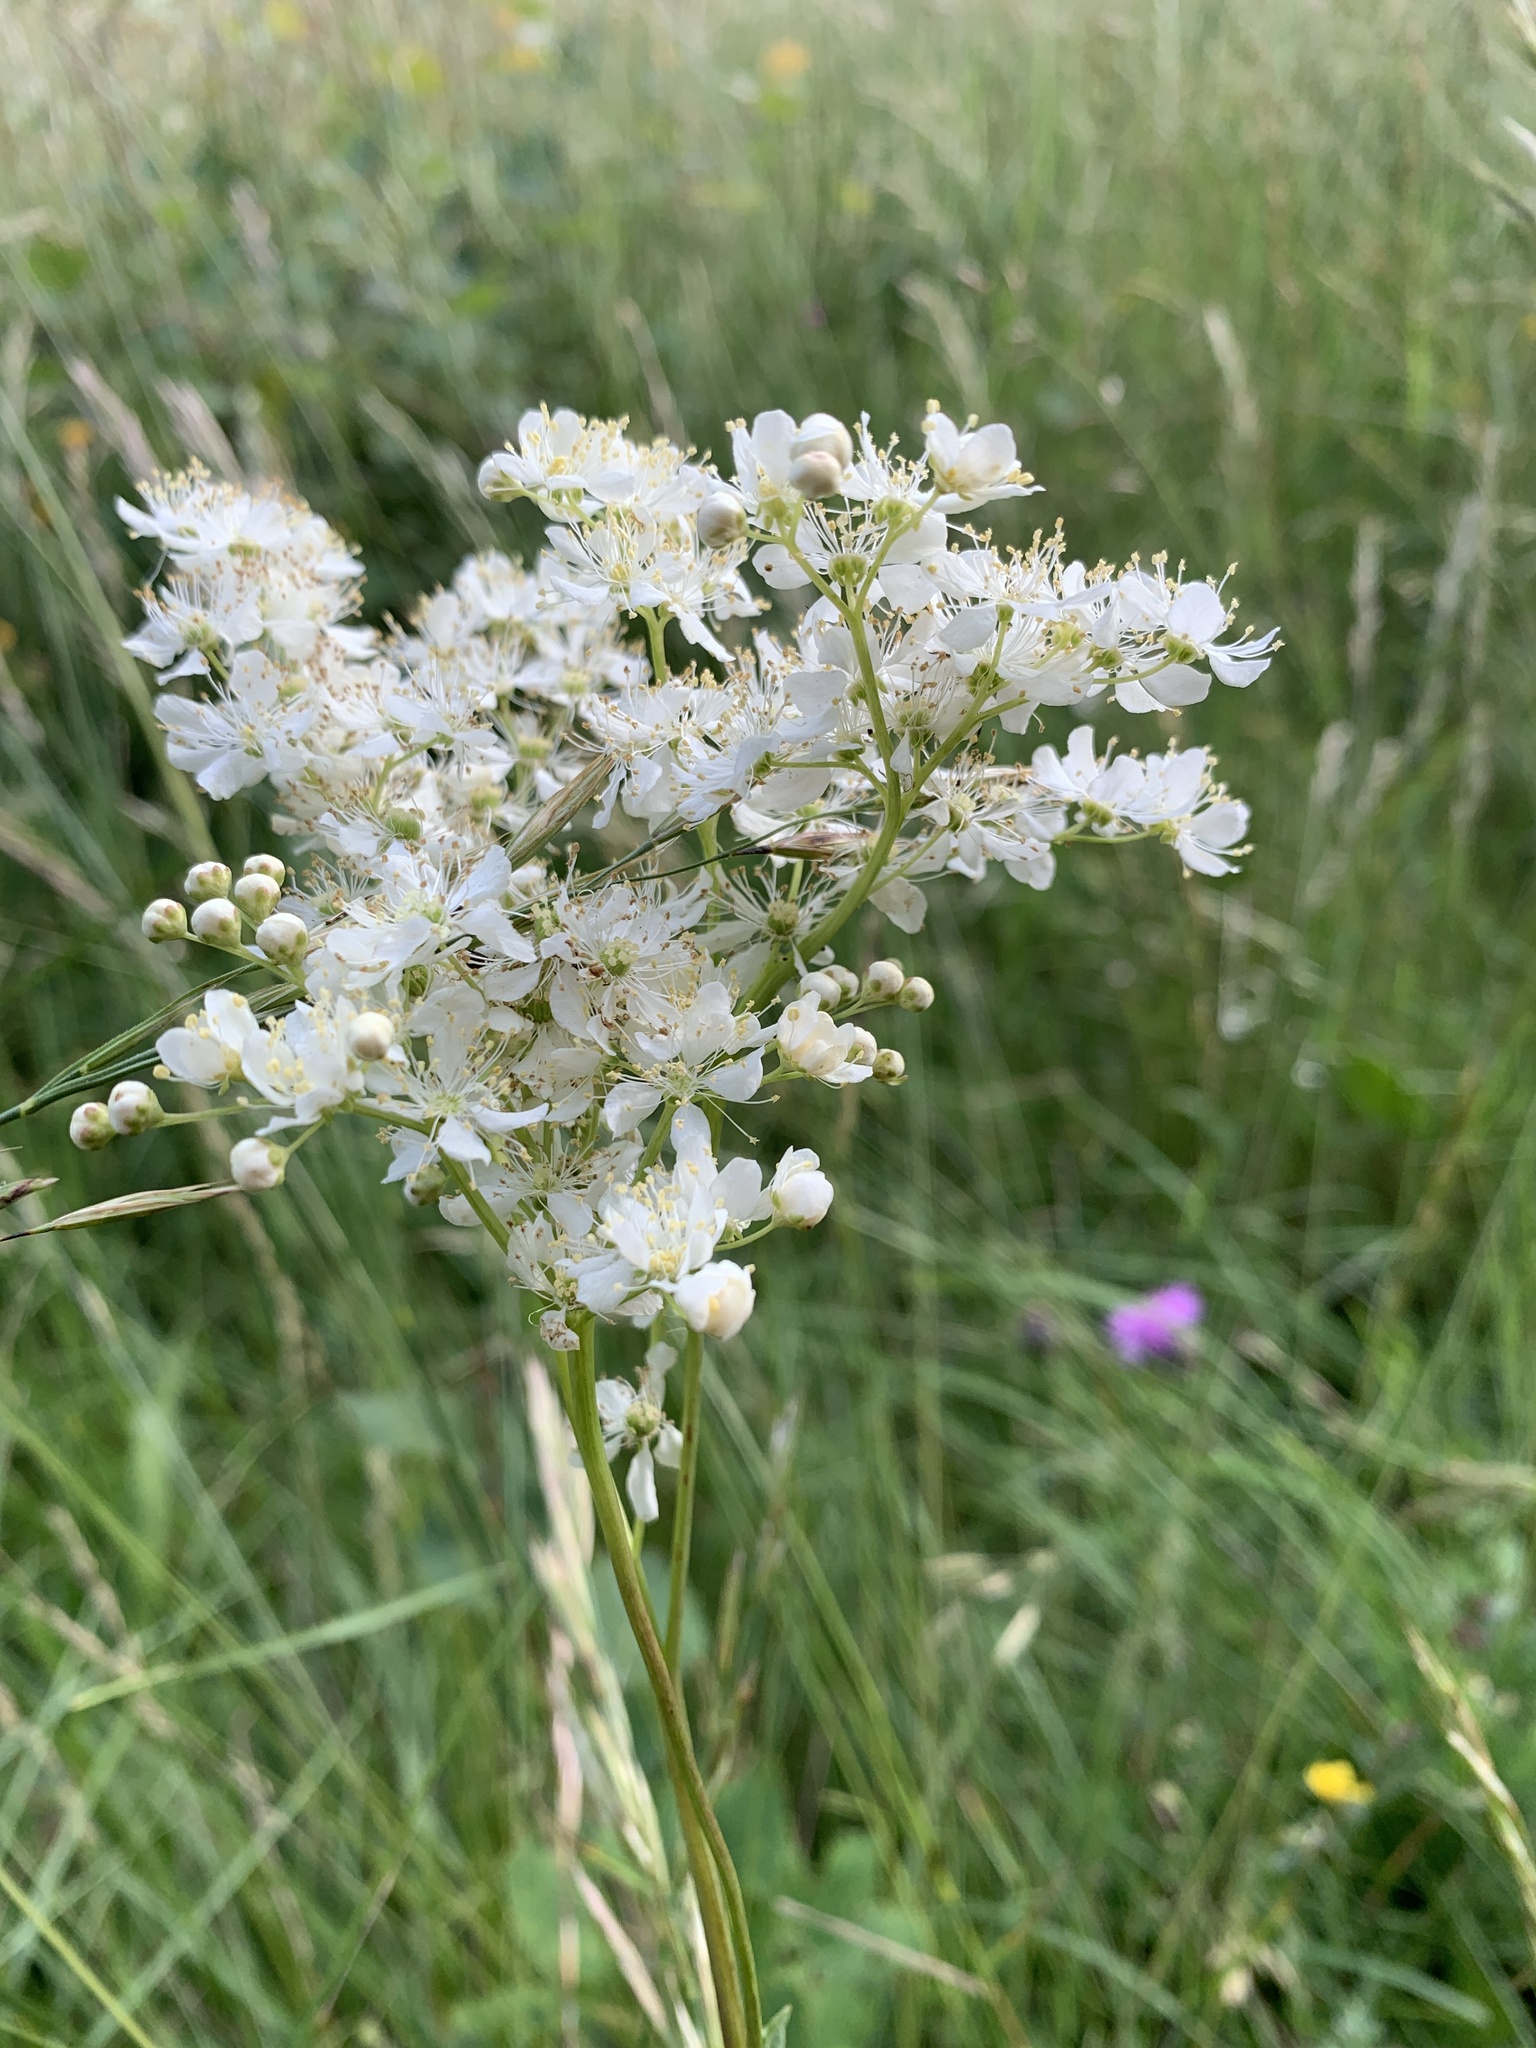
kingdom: Plantae
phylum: Tracheophyta
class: Magnoliopsida
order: Rosales
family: Rosaceae
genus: Filipendula
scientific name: Filipendula vulgaris
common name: Dropwort
